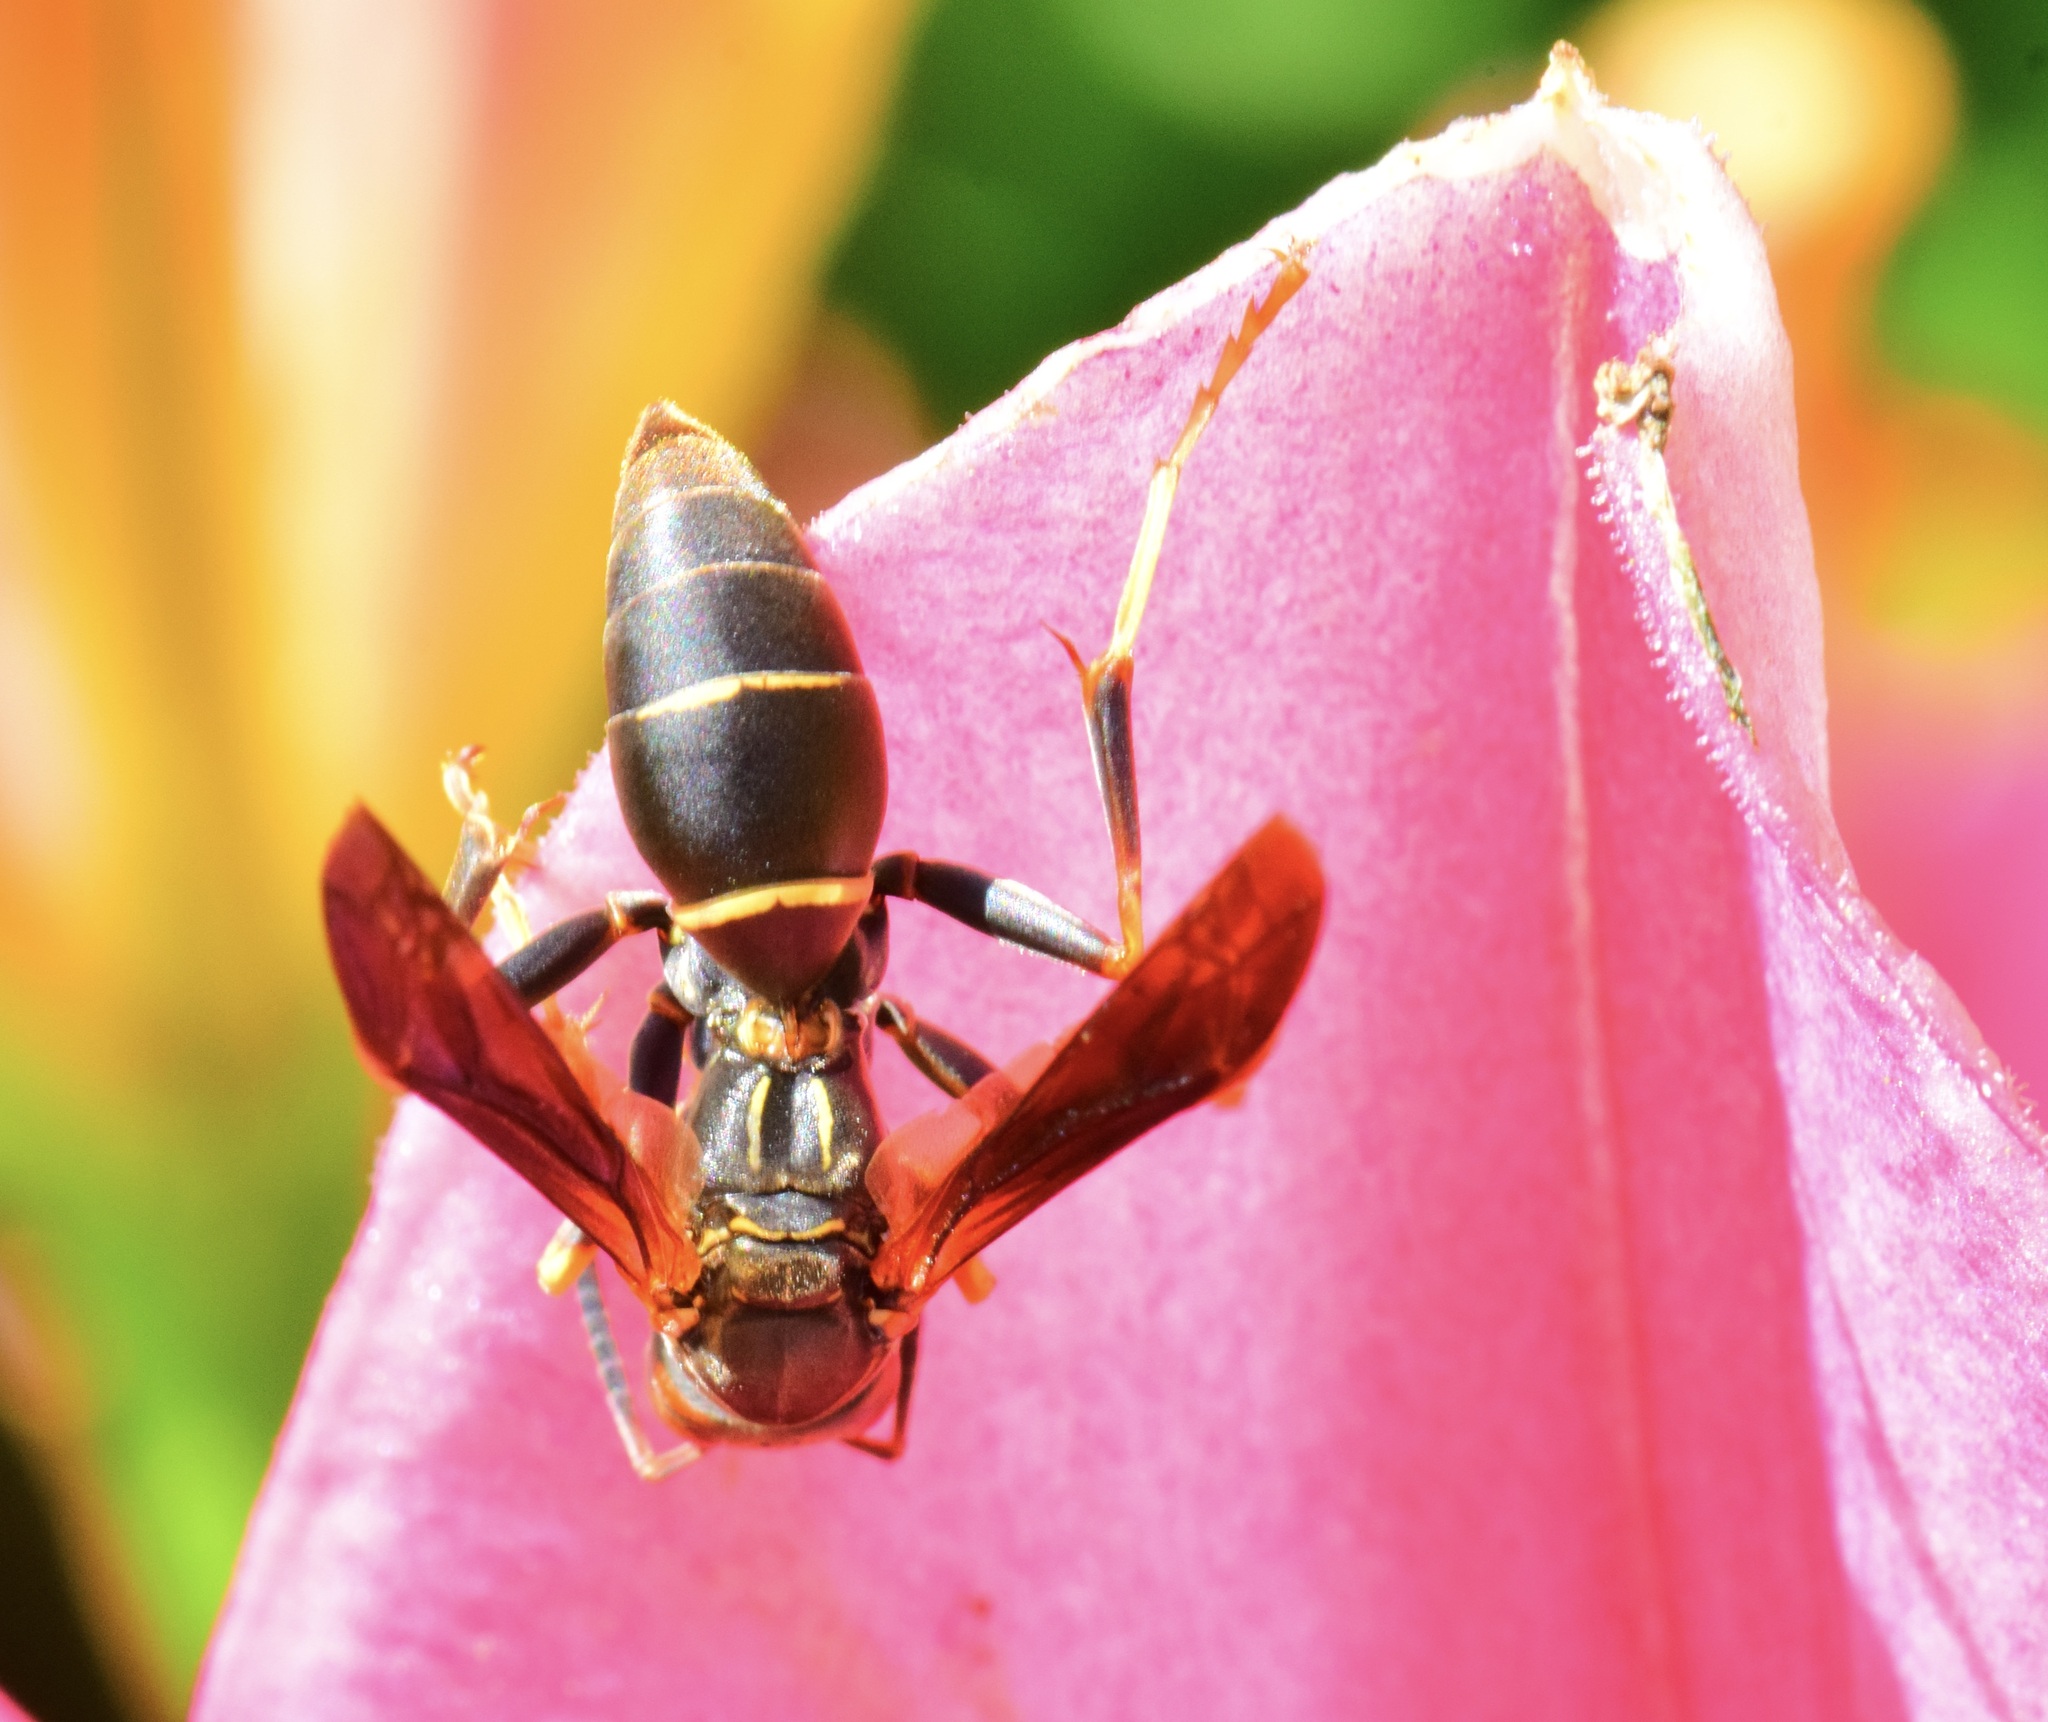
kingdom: Animalia
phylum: Arthropoda
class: Insecta
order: Hymenoptera
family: Eumenidae
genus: Polistes
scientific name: Polistes fuscatus
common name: Dark paper wasp
